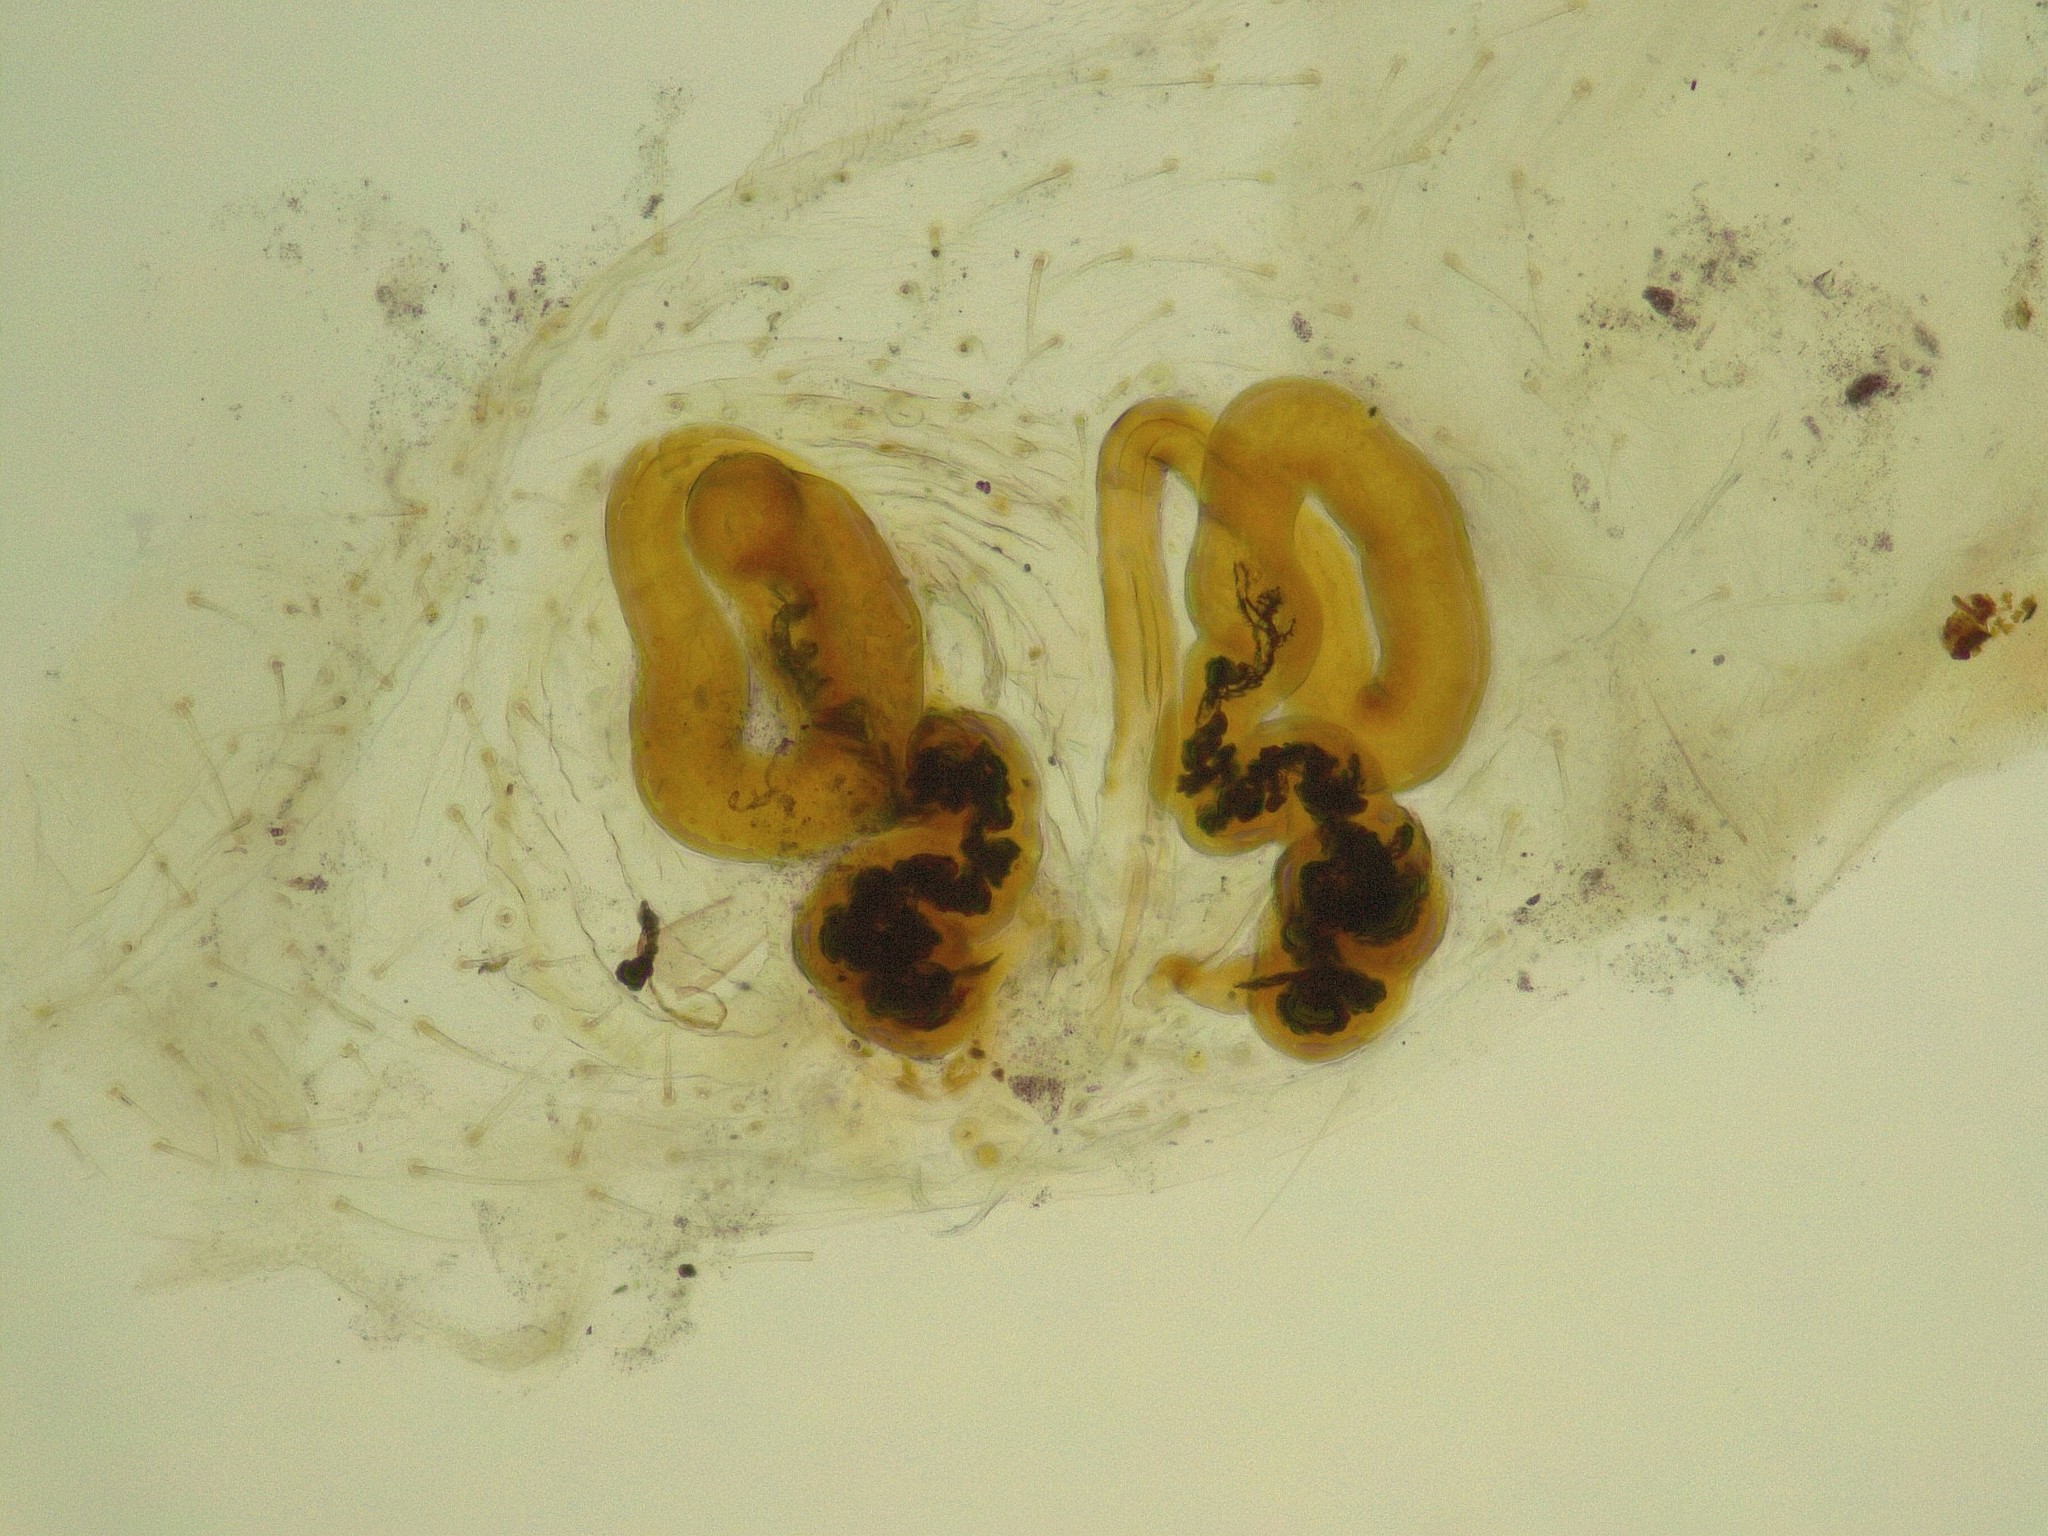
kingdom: Animalia
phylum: Arthropoda
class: Arachnida
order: Araneae
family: Thomisidae
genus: Diaea
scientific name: Diaea albolimbata
